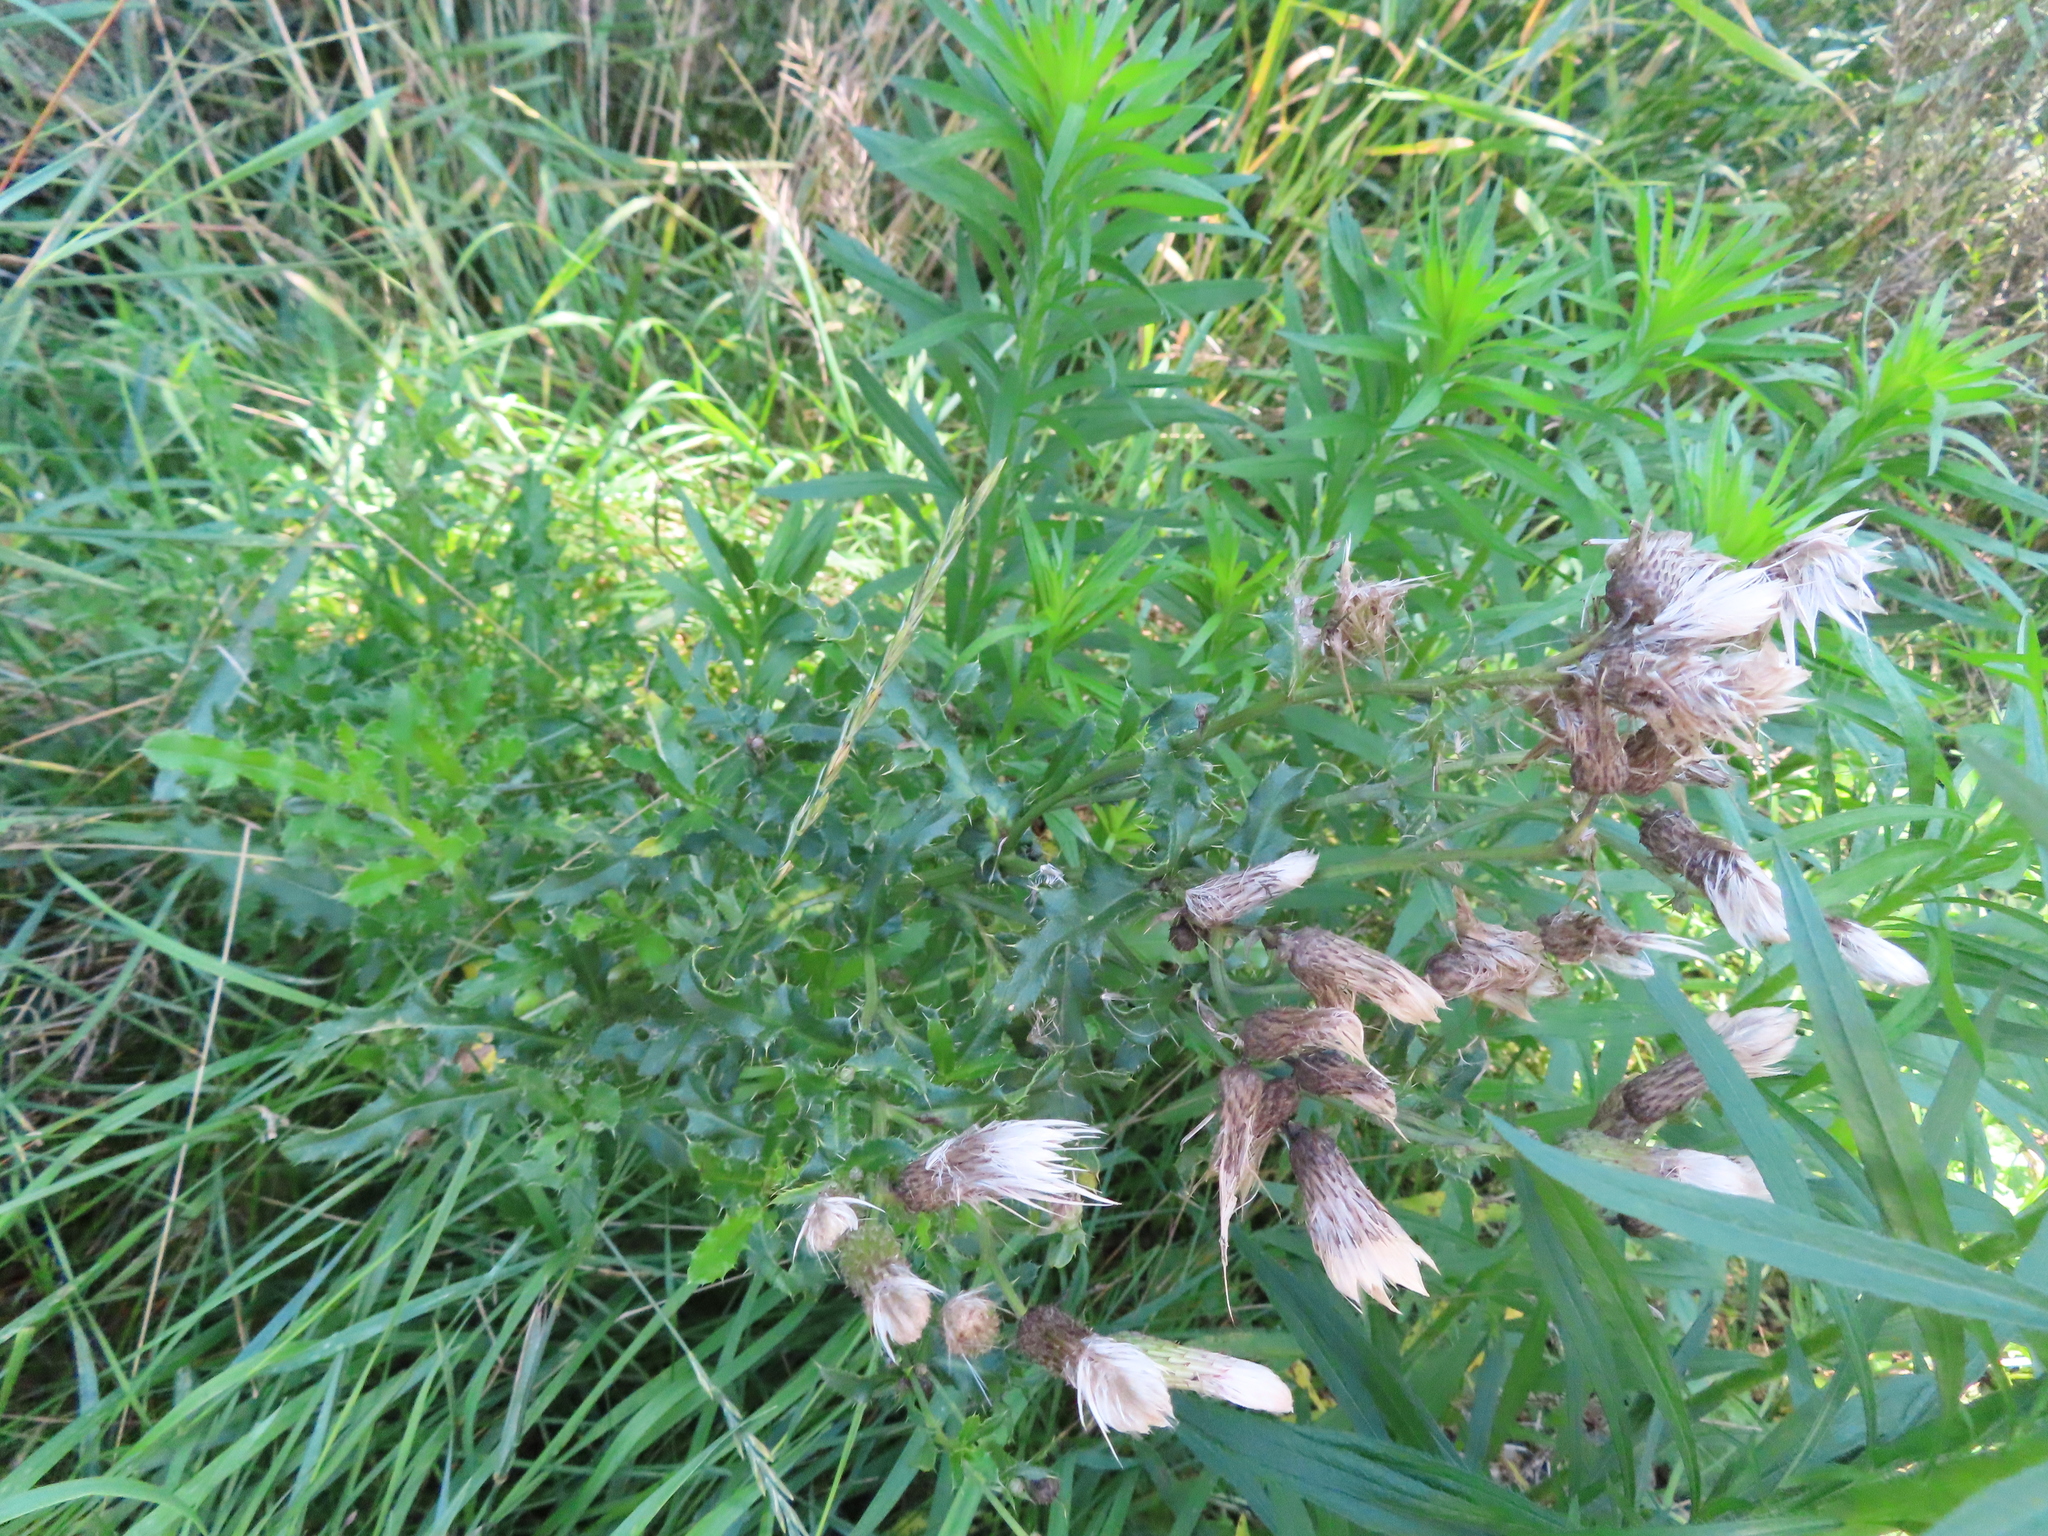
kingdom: Plantae
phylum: Tracheophyta
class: Magnoliopsida
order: Asterales
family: Asteraceae
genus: Cirsium
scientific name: Cirsium arvense
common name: Creeping thistle
